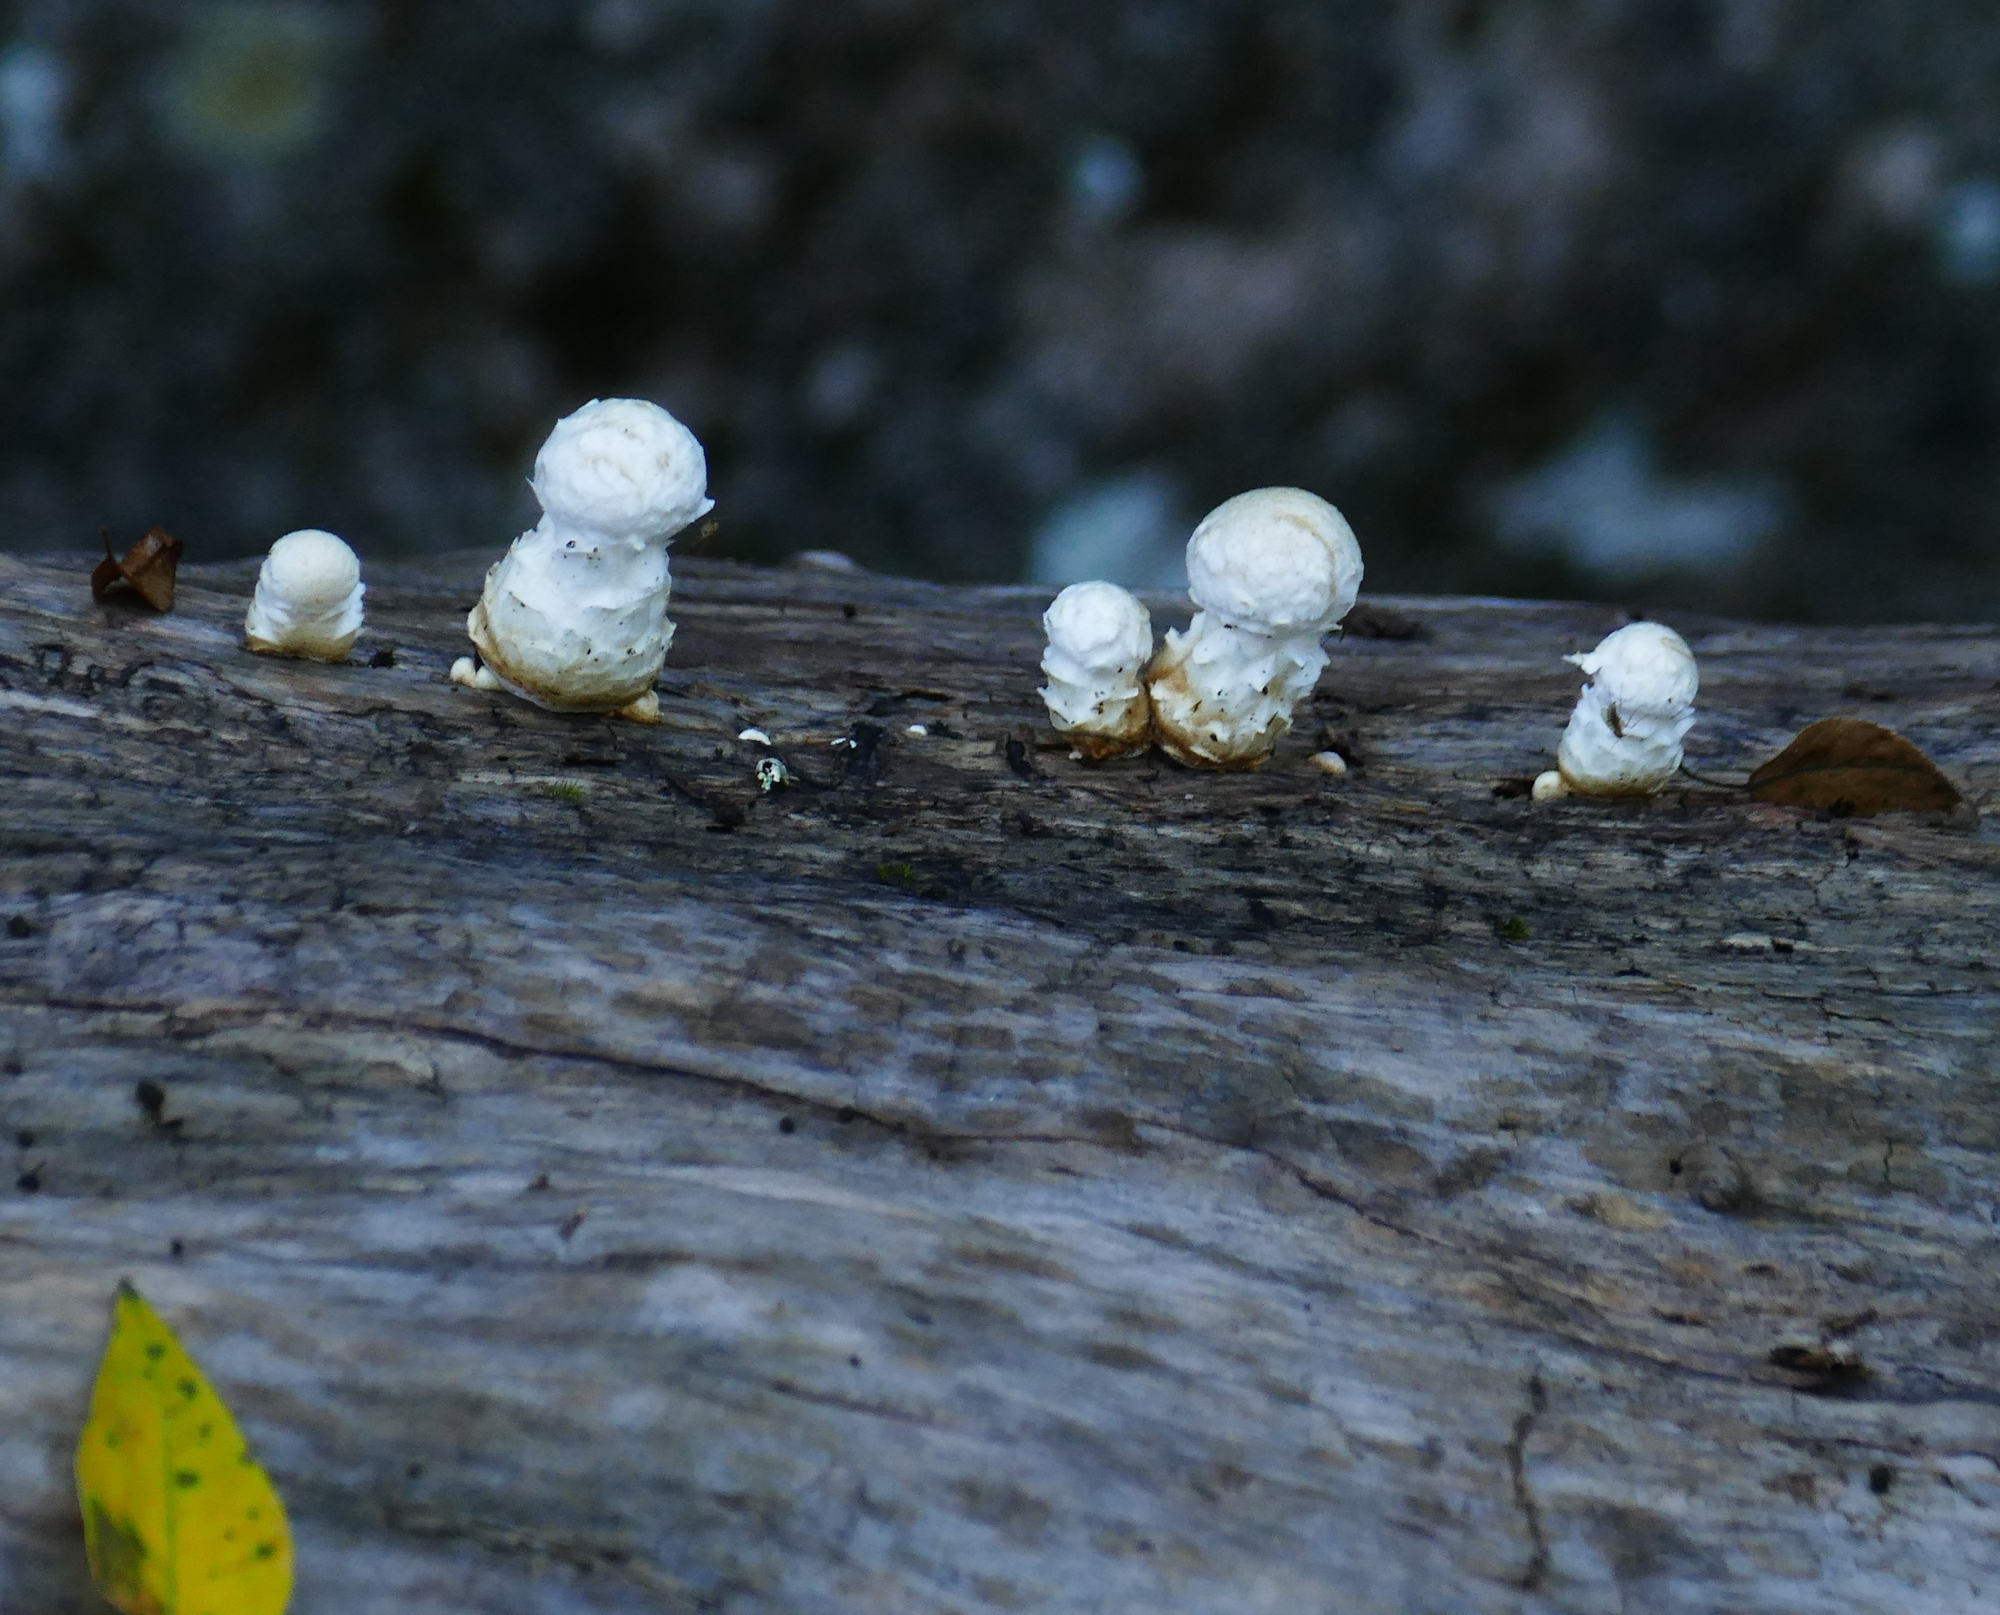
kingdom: Fungi
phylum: Basidiomycota
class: Agaricomycetes
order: Agaricales
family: Strophariaceae
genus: Pholiota
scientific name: Pholiota populnea
